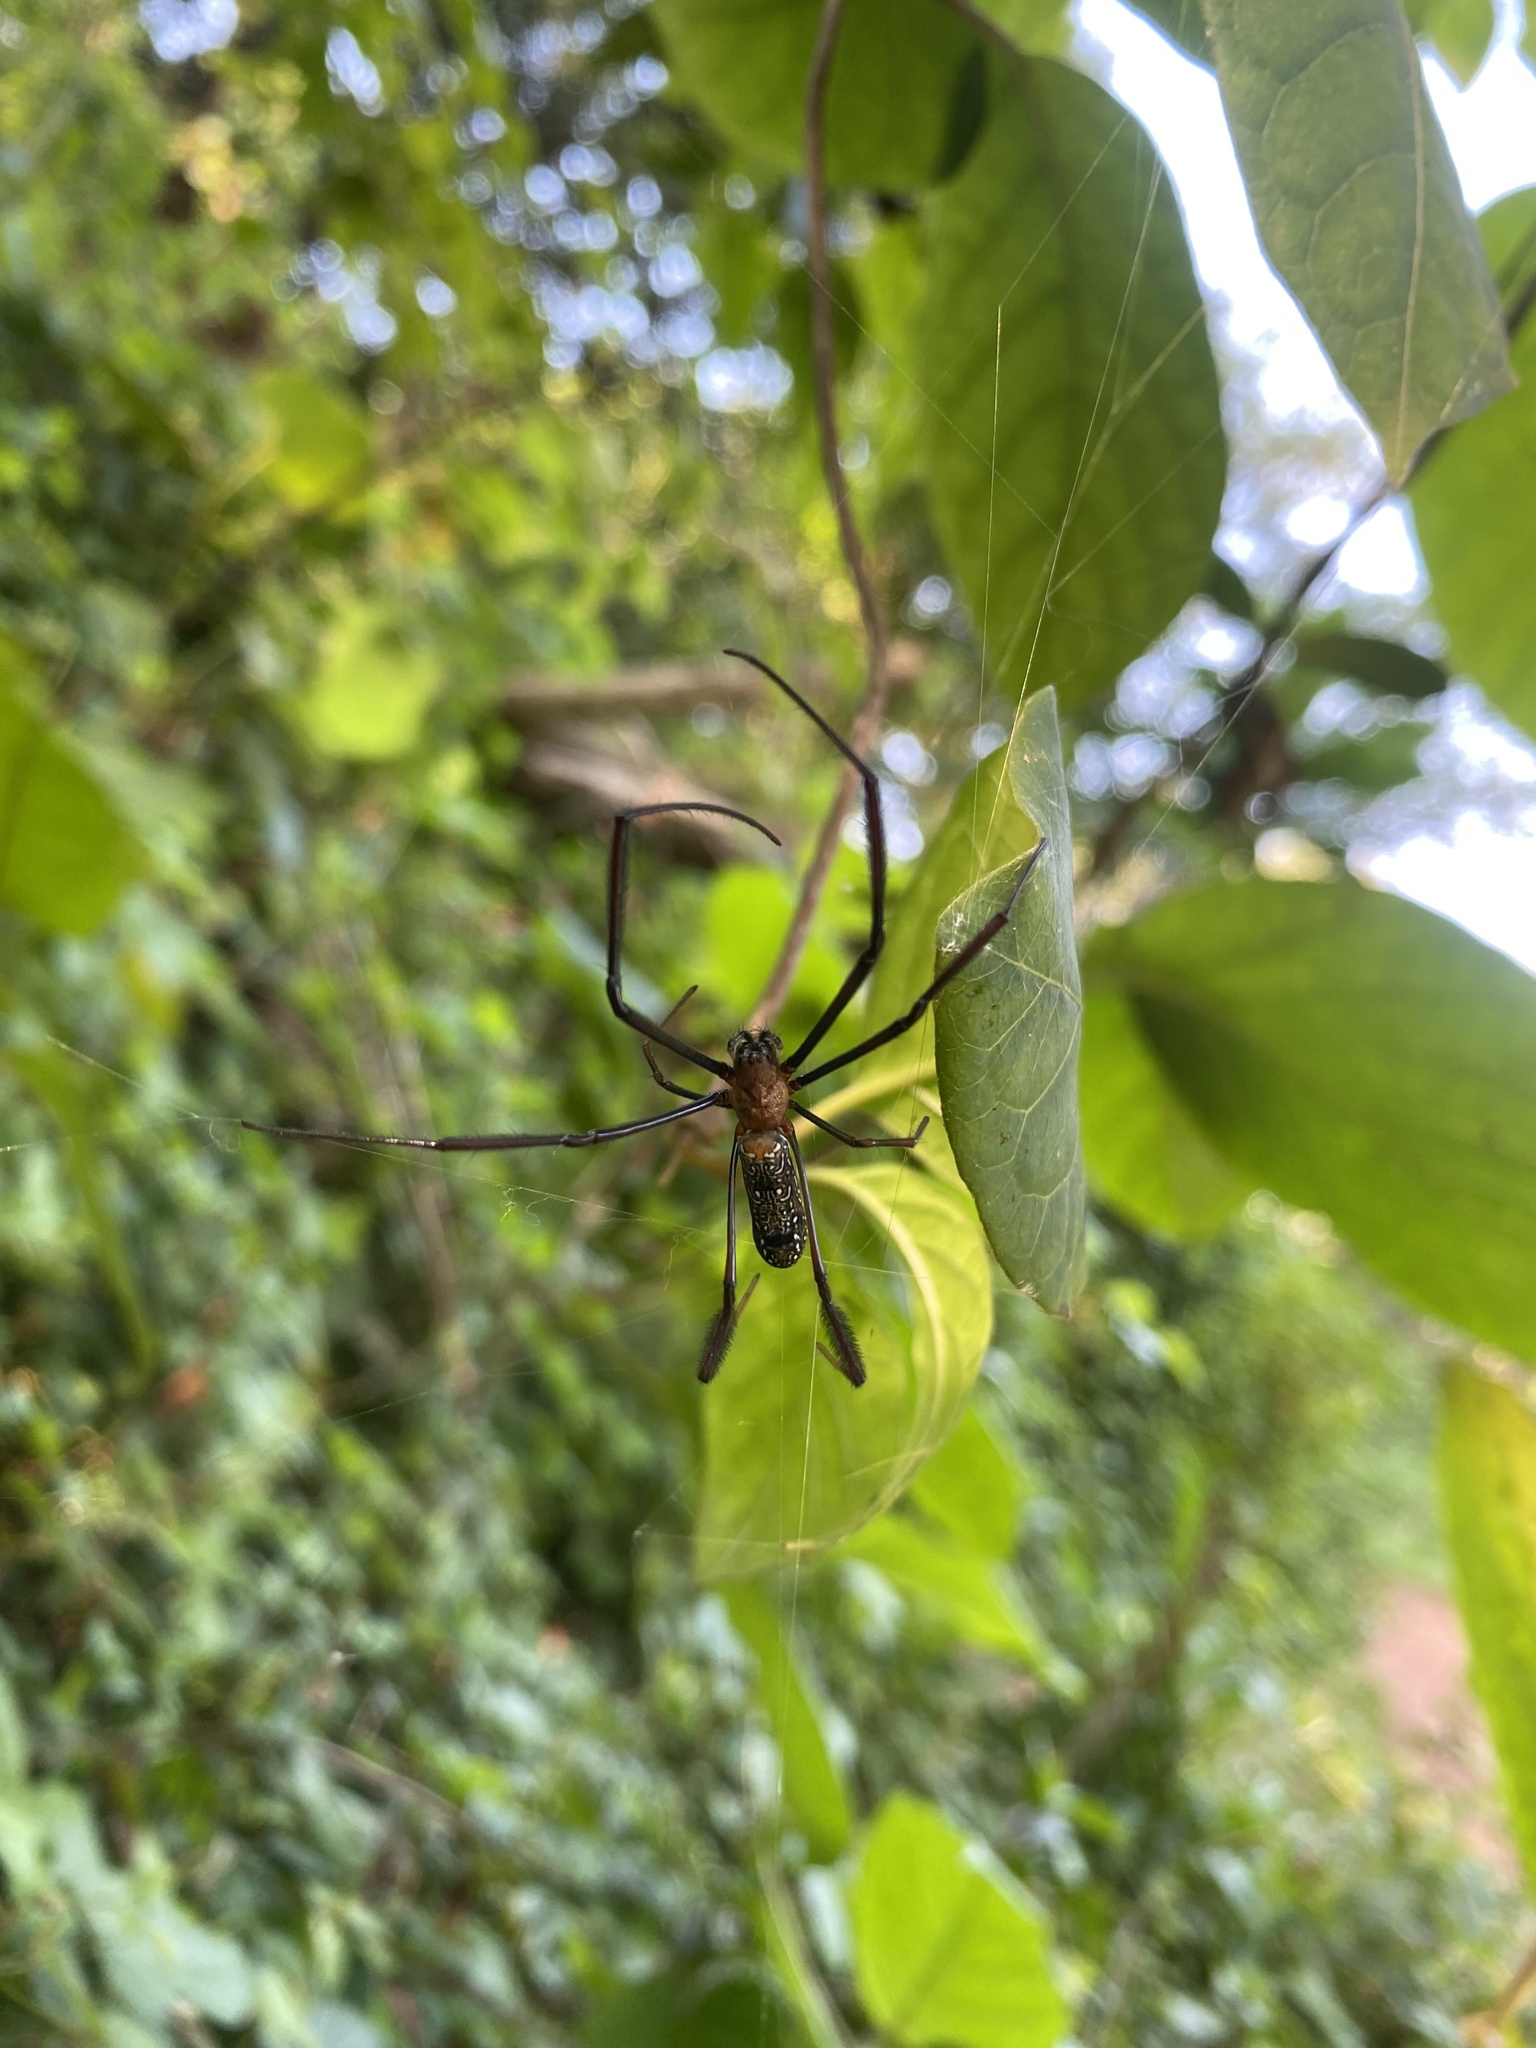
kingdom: Animalia
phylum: Arthropoda
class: Arachnida
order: Araneae
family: Araneidae
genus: Trichonephila
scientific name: Trichonephila fenestrata
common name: Hairy golden orb weaver
